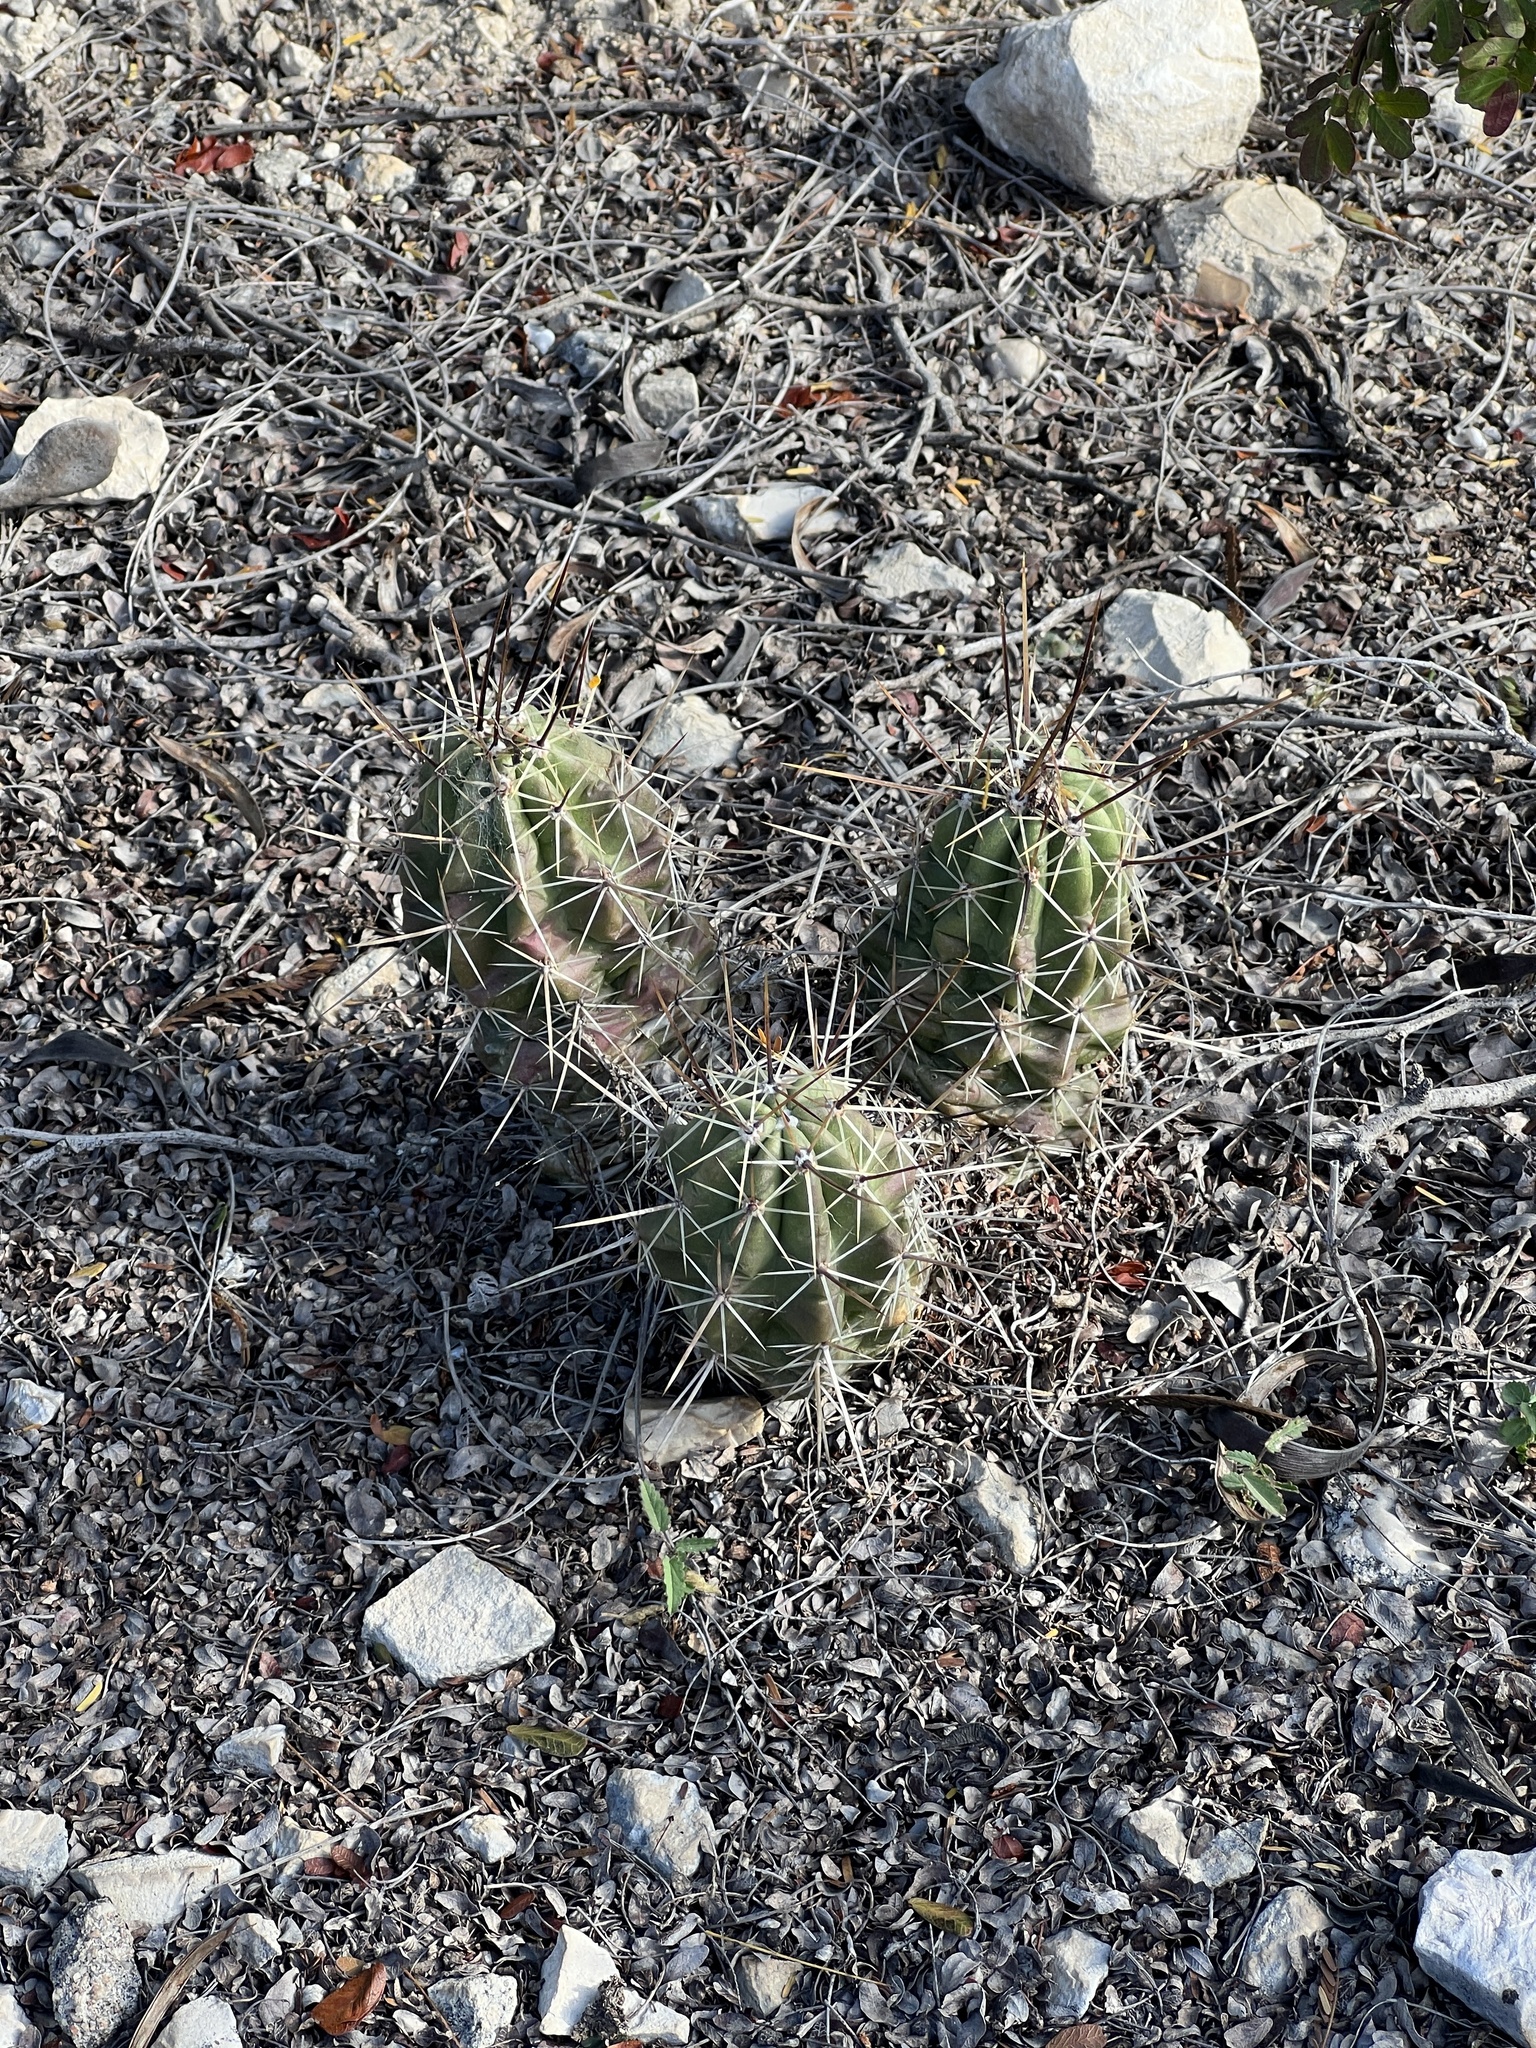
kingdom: Plantae
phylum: Tracheophyta
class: Magnoliopsida
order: Caryophyllales
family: Cactaceae
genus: Echinocereus
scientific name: Echinocereus enneacanthus
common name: Pitaya
